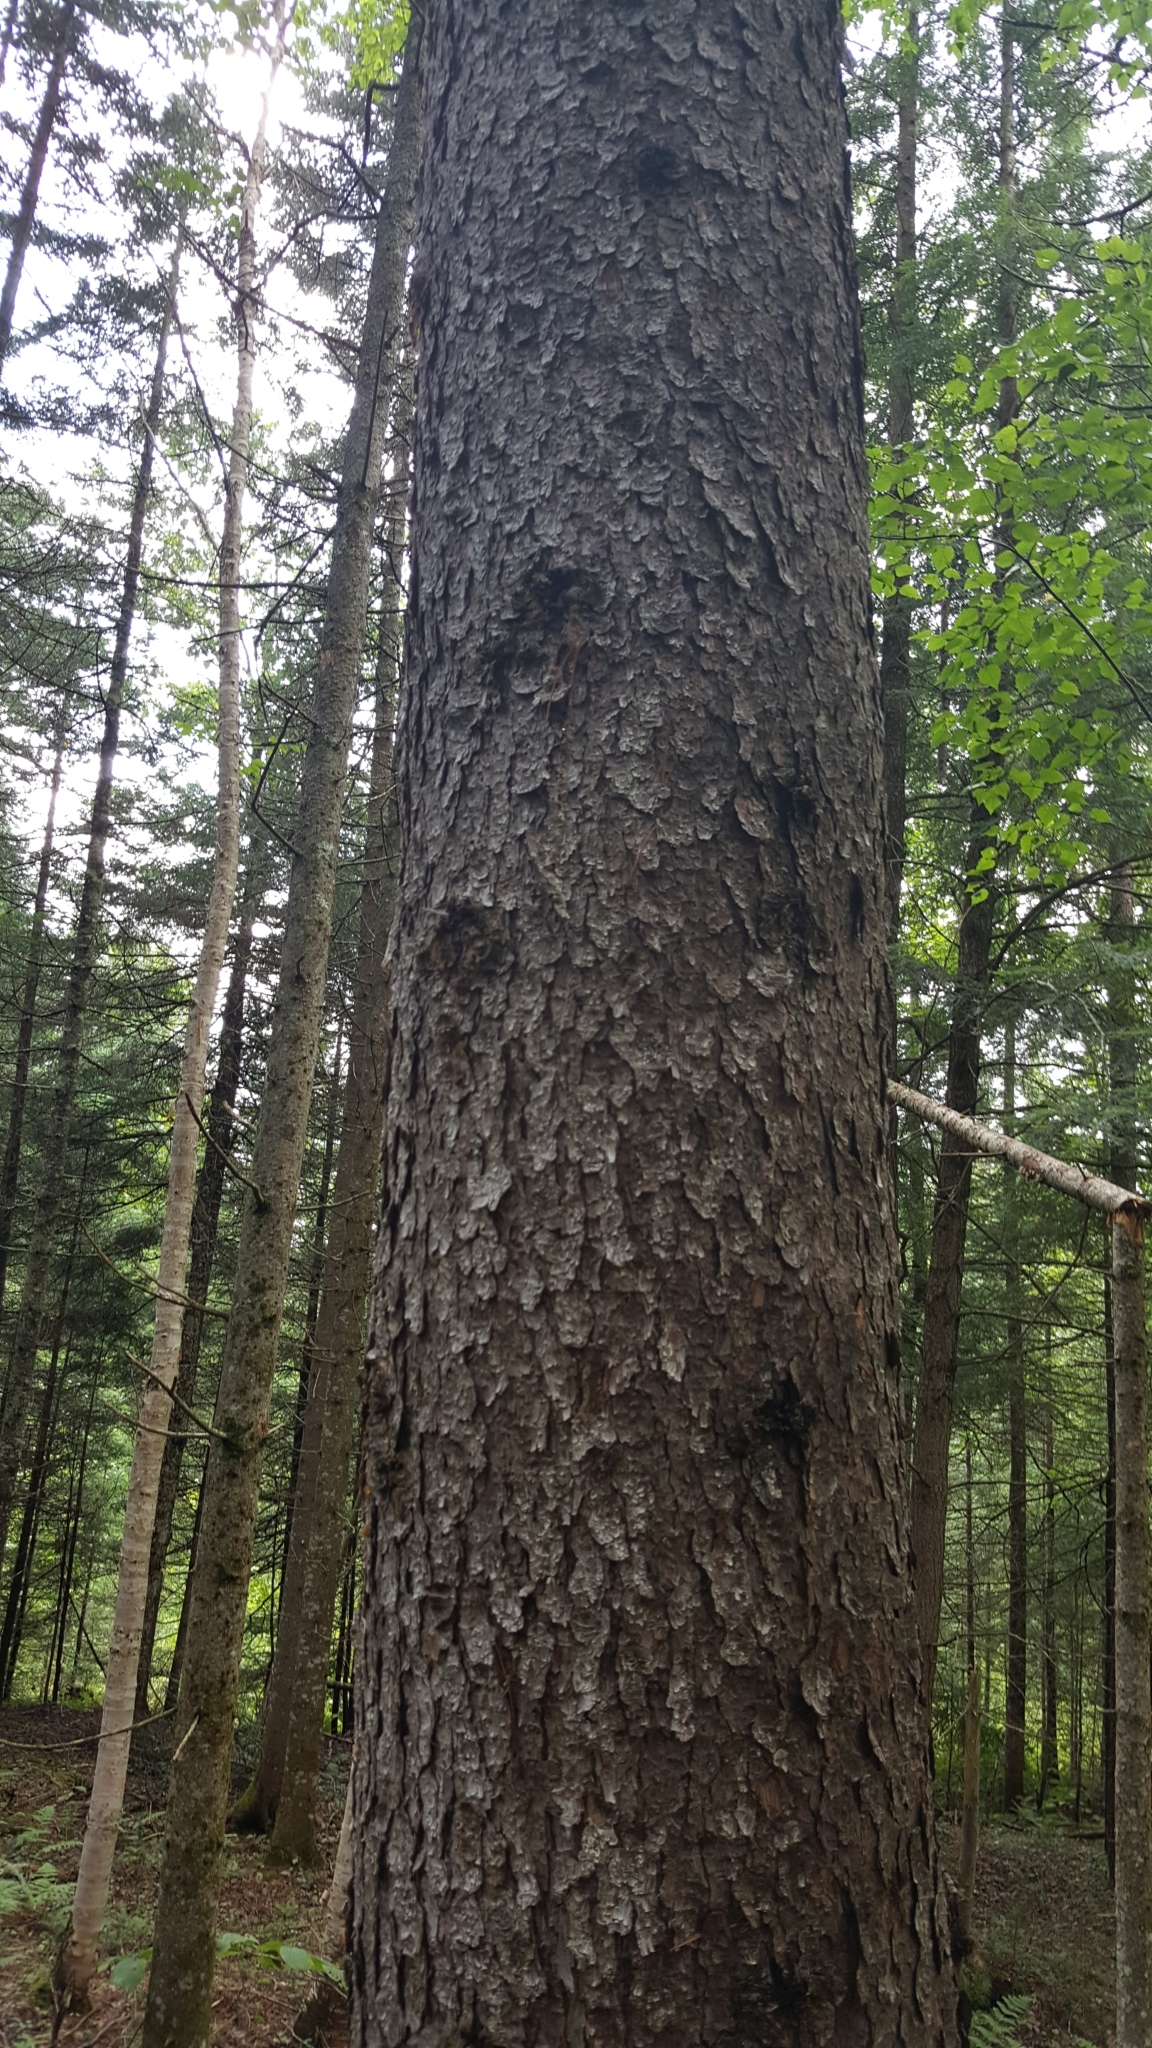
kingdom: Plantae
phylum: Tracheophyta
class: Pinopsida
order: Pinales
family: Pinaceae
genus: Picea
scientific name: Picea rubens
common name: Red spruce
